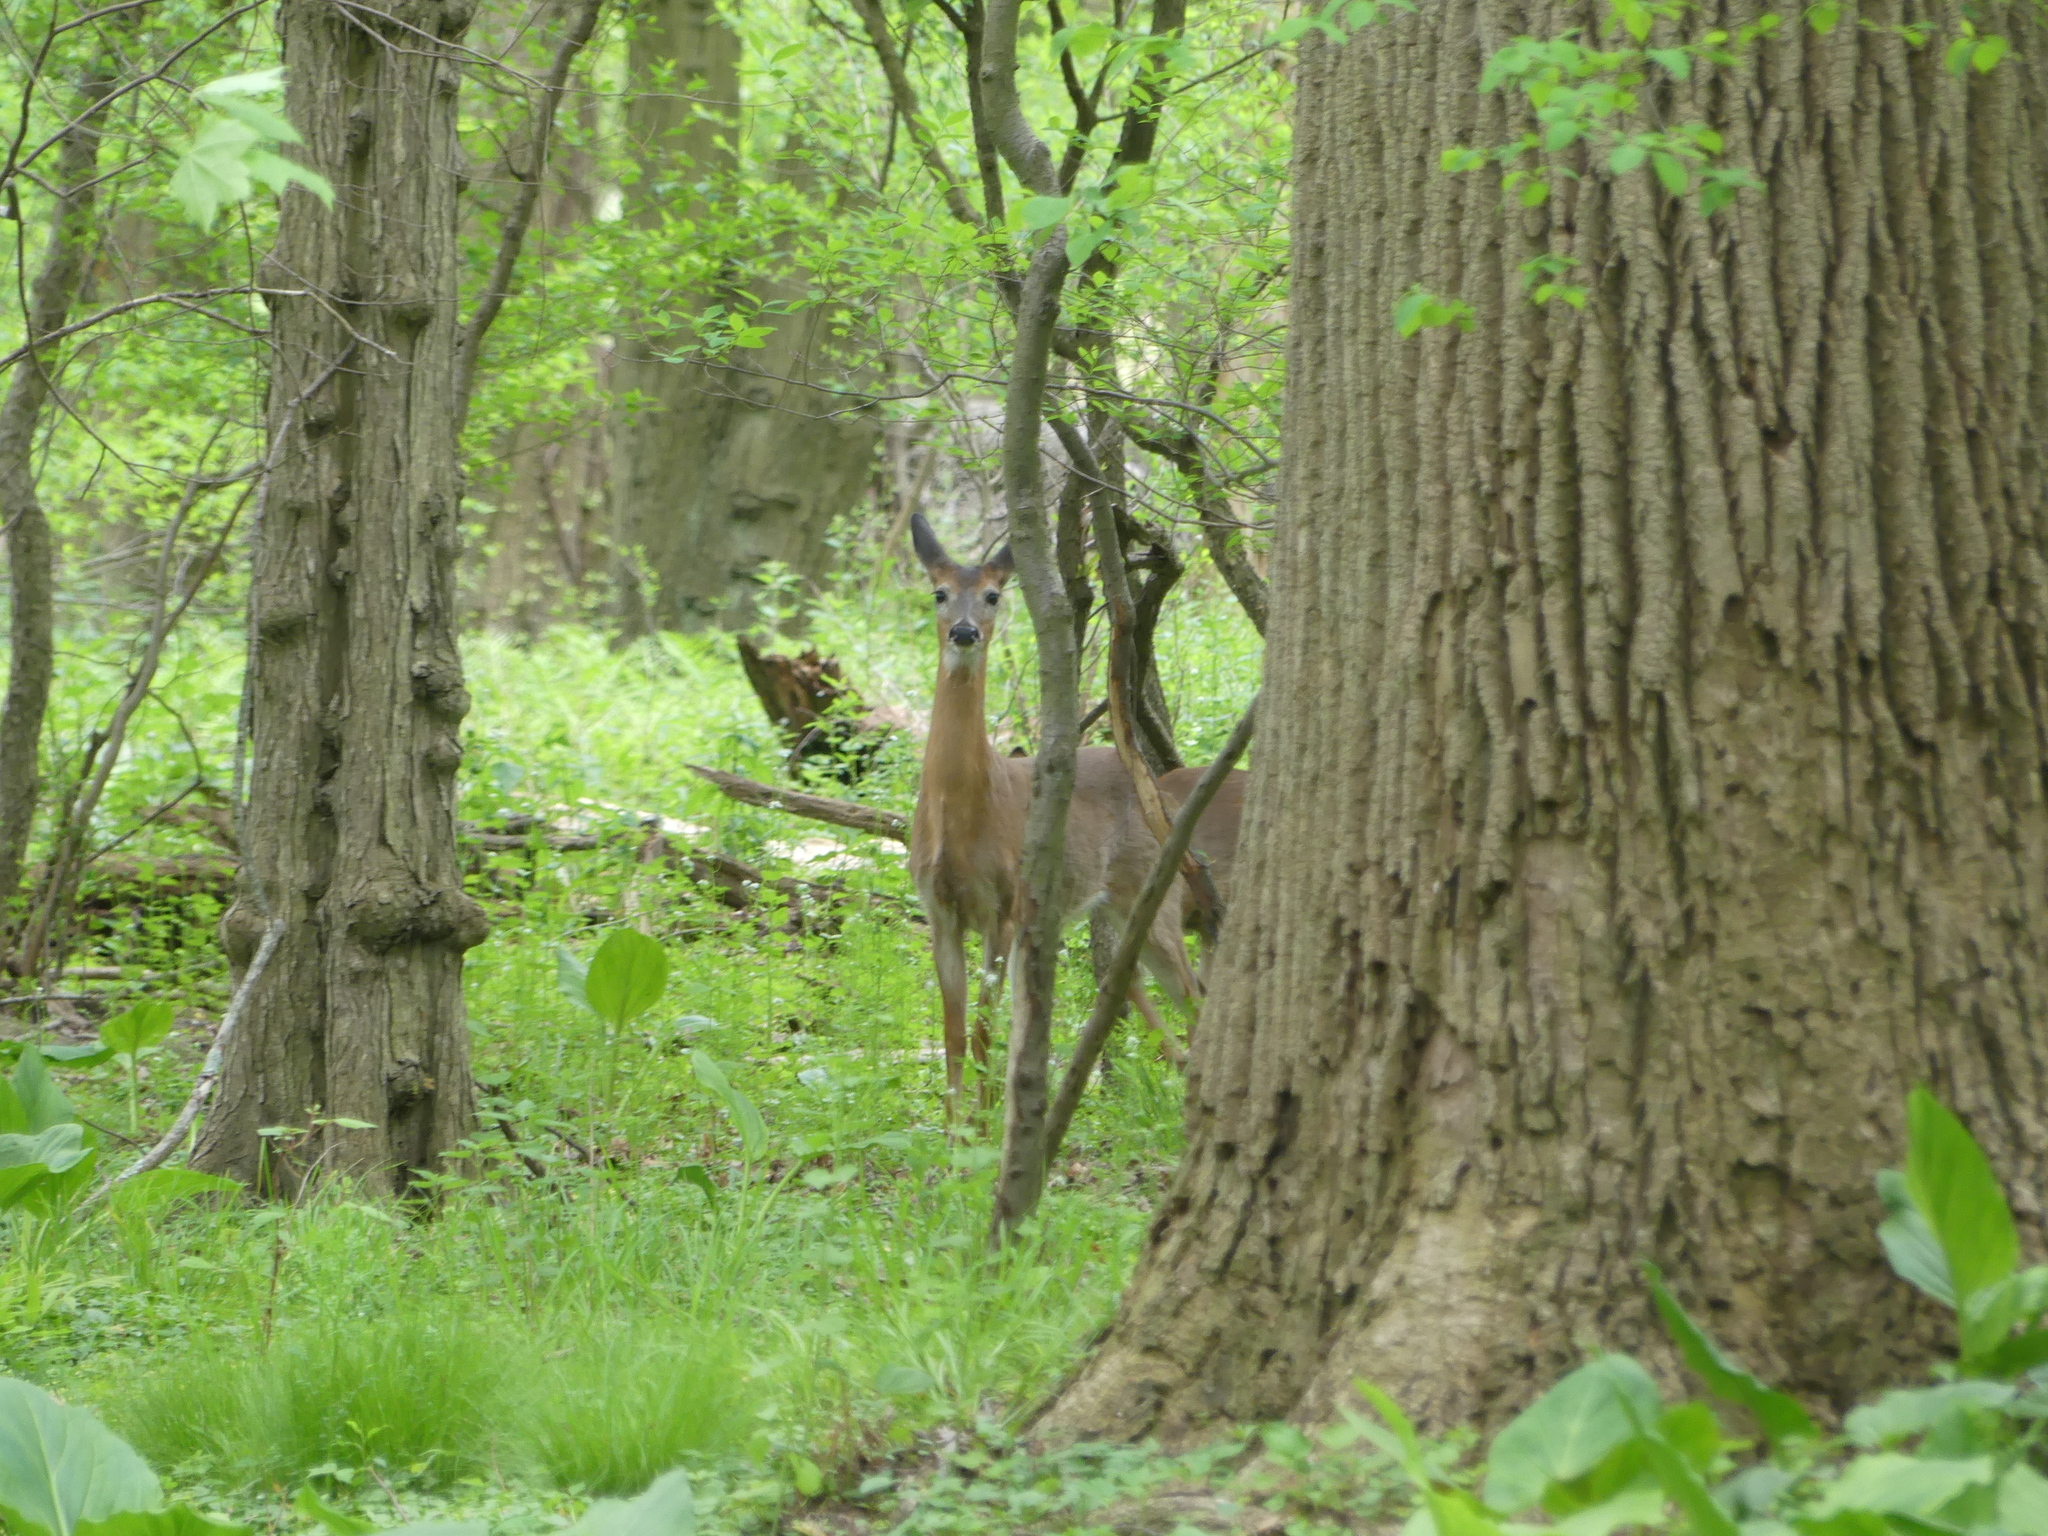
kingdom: Animalia
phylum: Chordata
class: Mammalia
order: Artiodactyla
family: Cervidae
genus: Odocoileus
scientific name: Odocoileus virginianus
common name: White-tailed deer
